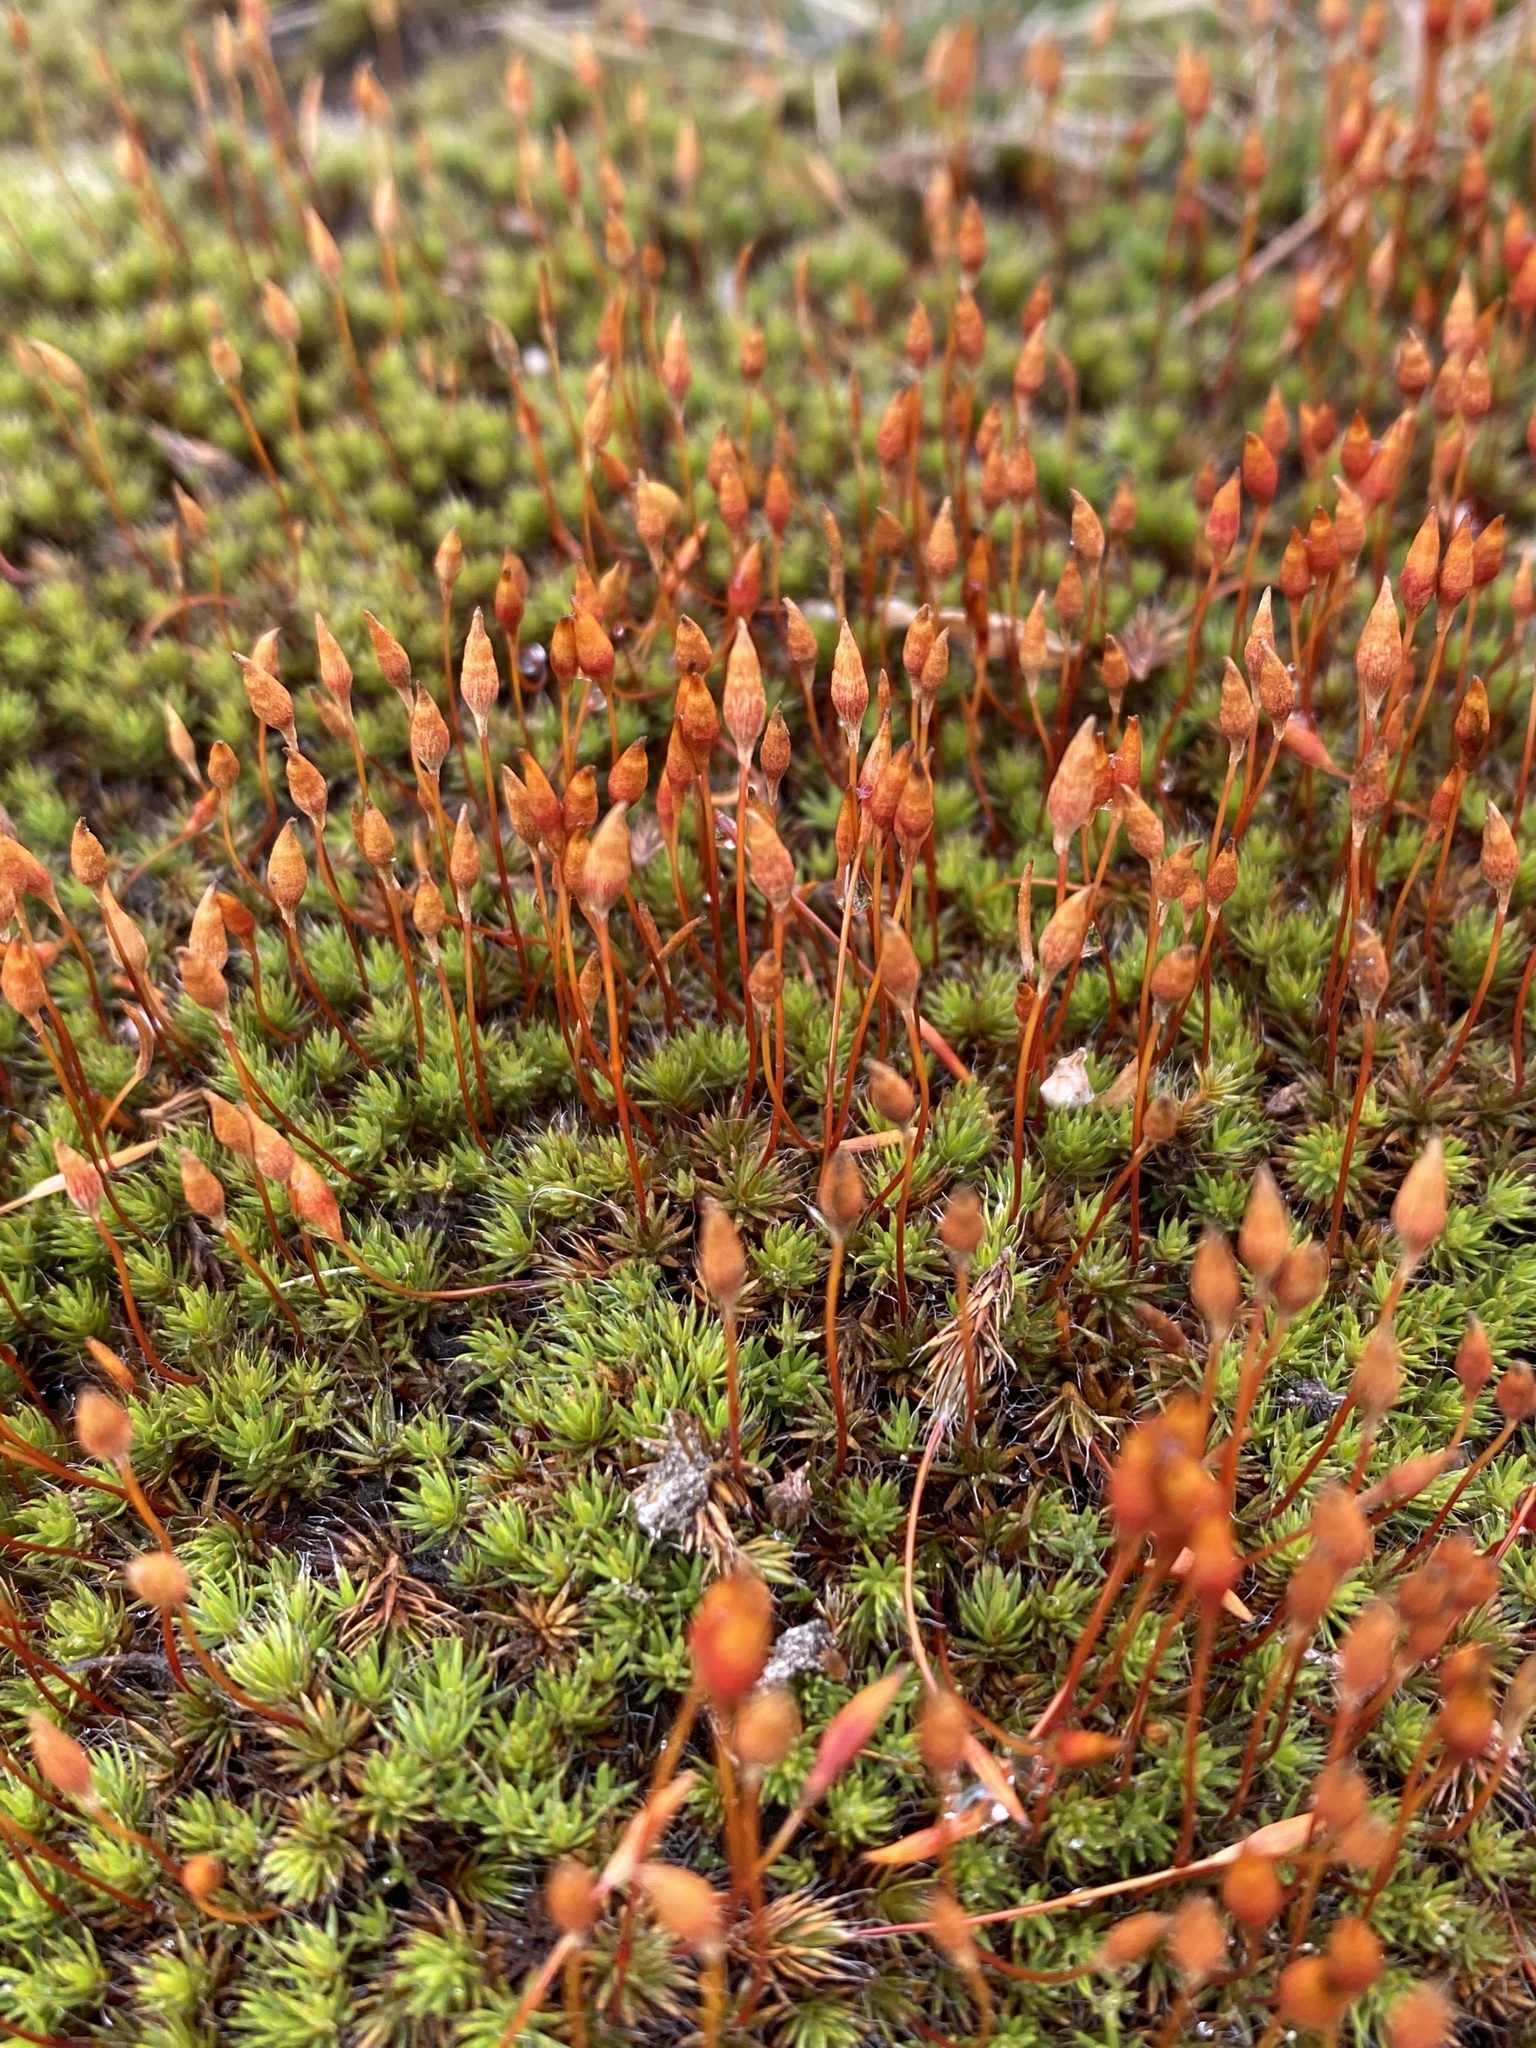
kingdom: Plantae
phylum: Bryophyta
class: Polytrichopsida
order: Polytrichales
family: Polytrichaceae
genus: Polytrichum
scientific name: Polytrichum piliferum
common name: Bristly haircap
